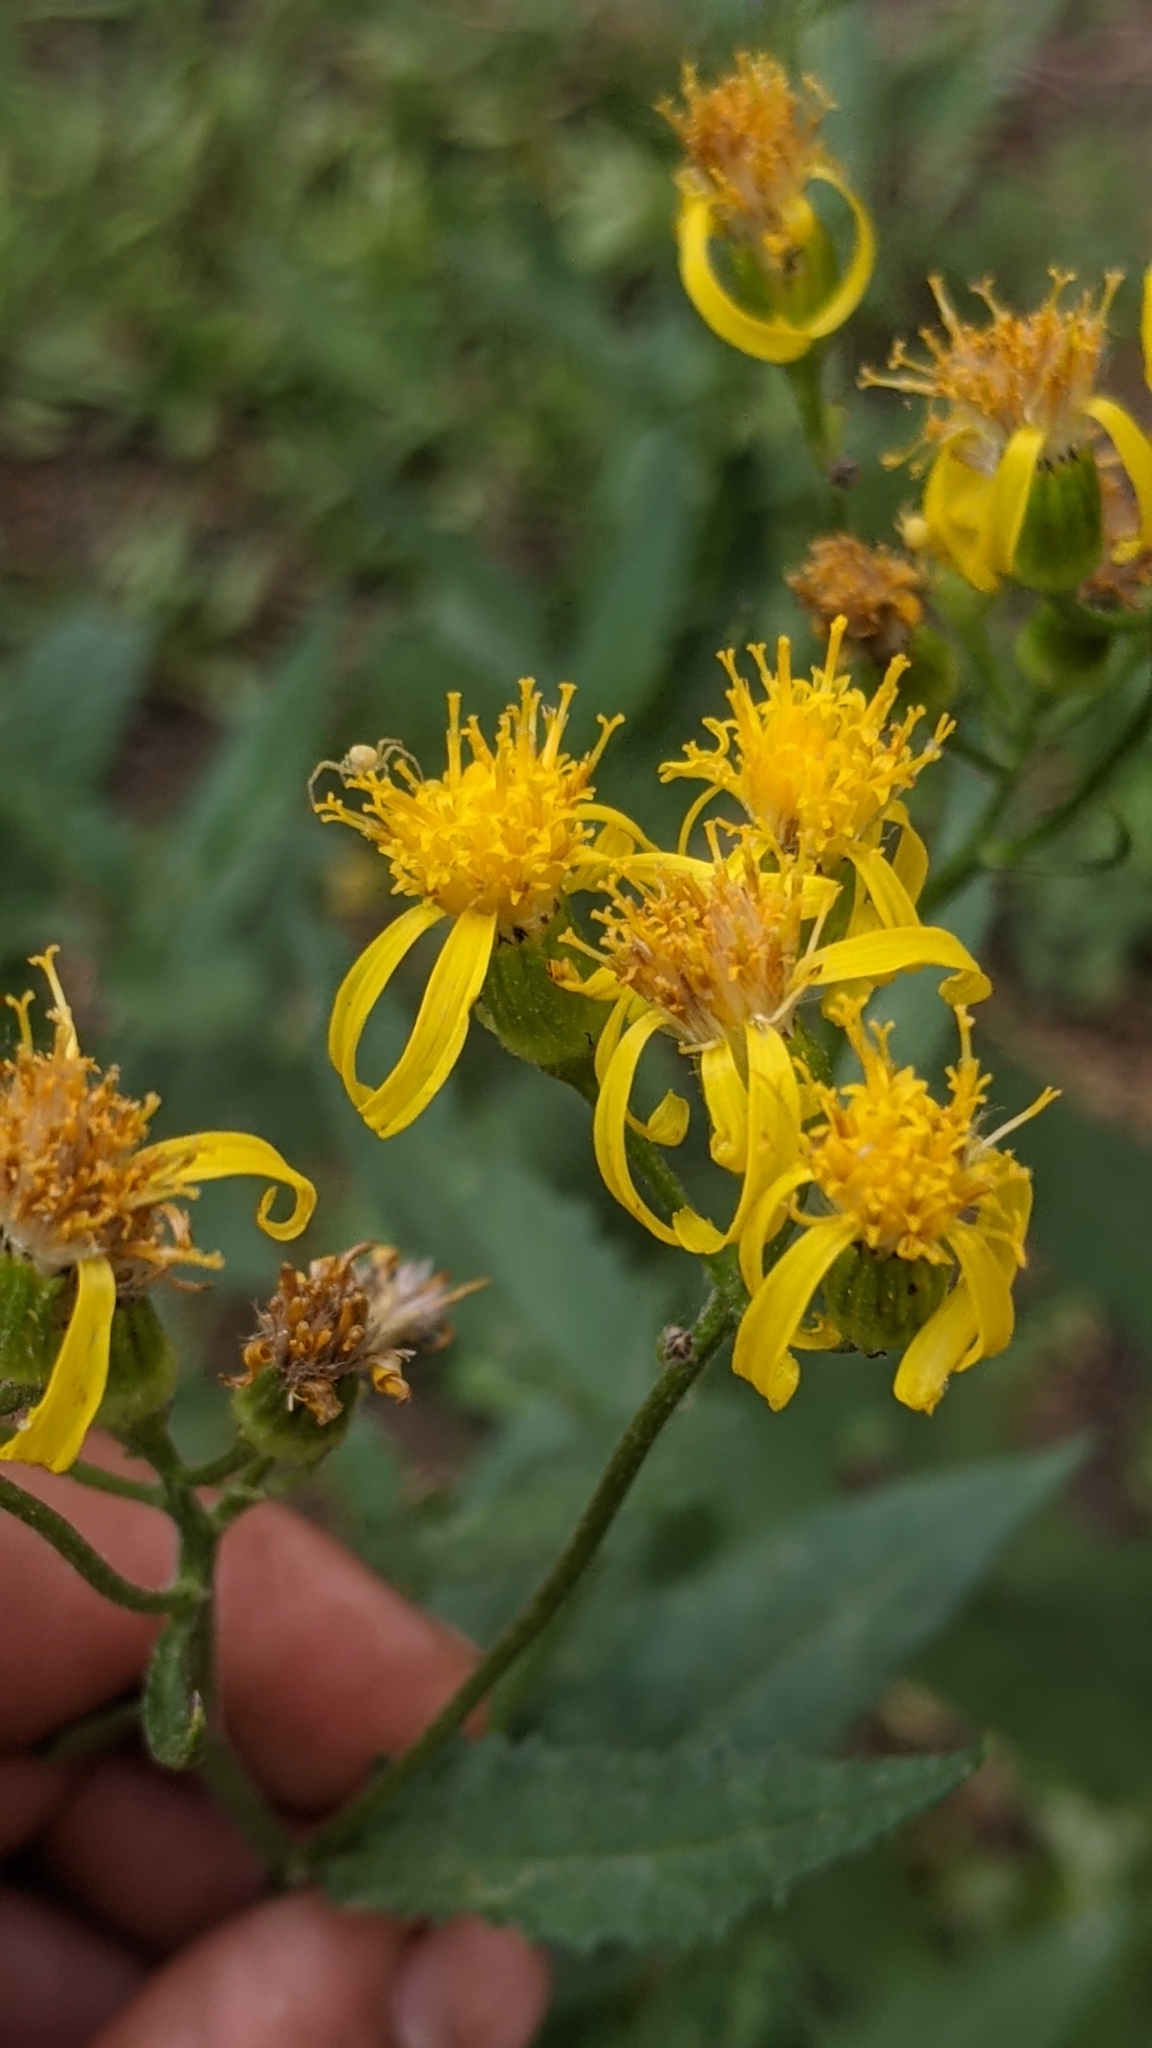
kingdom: Plantae
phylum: Tracheophyta
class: Magnoliopsida
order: Asterales
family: Asteraceae
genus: Senecio
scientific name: Senecio triangularis
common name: Arrowleaf butterweed
